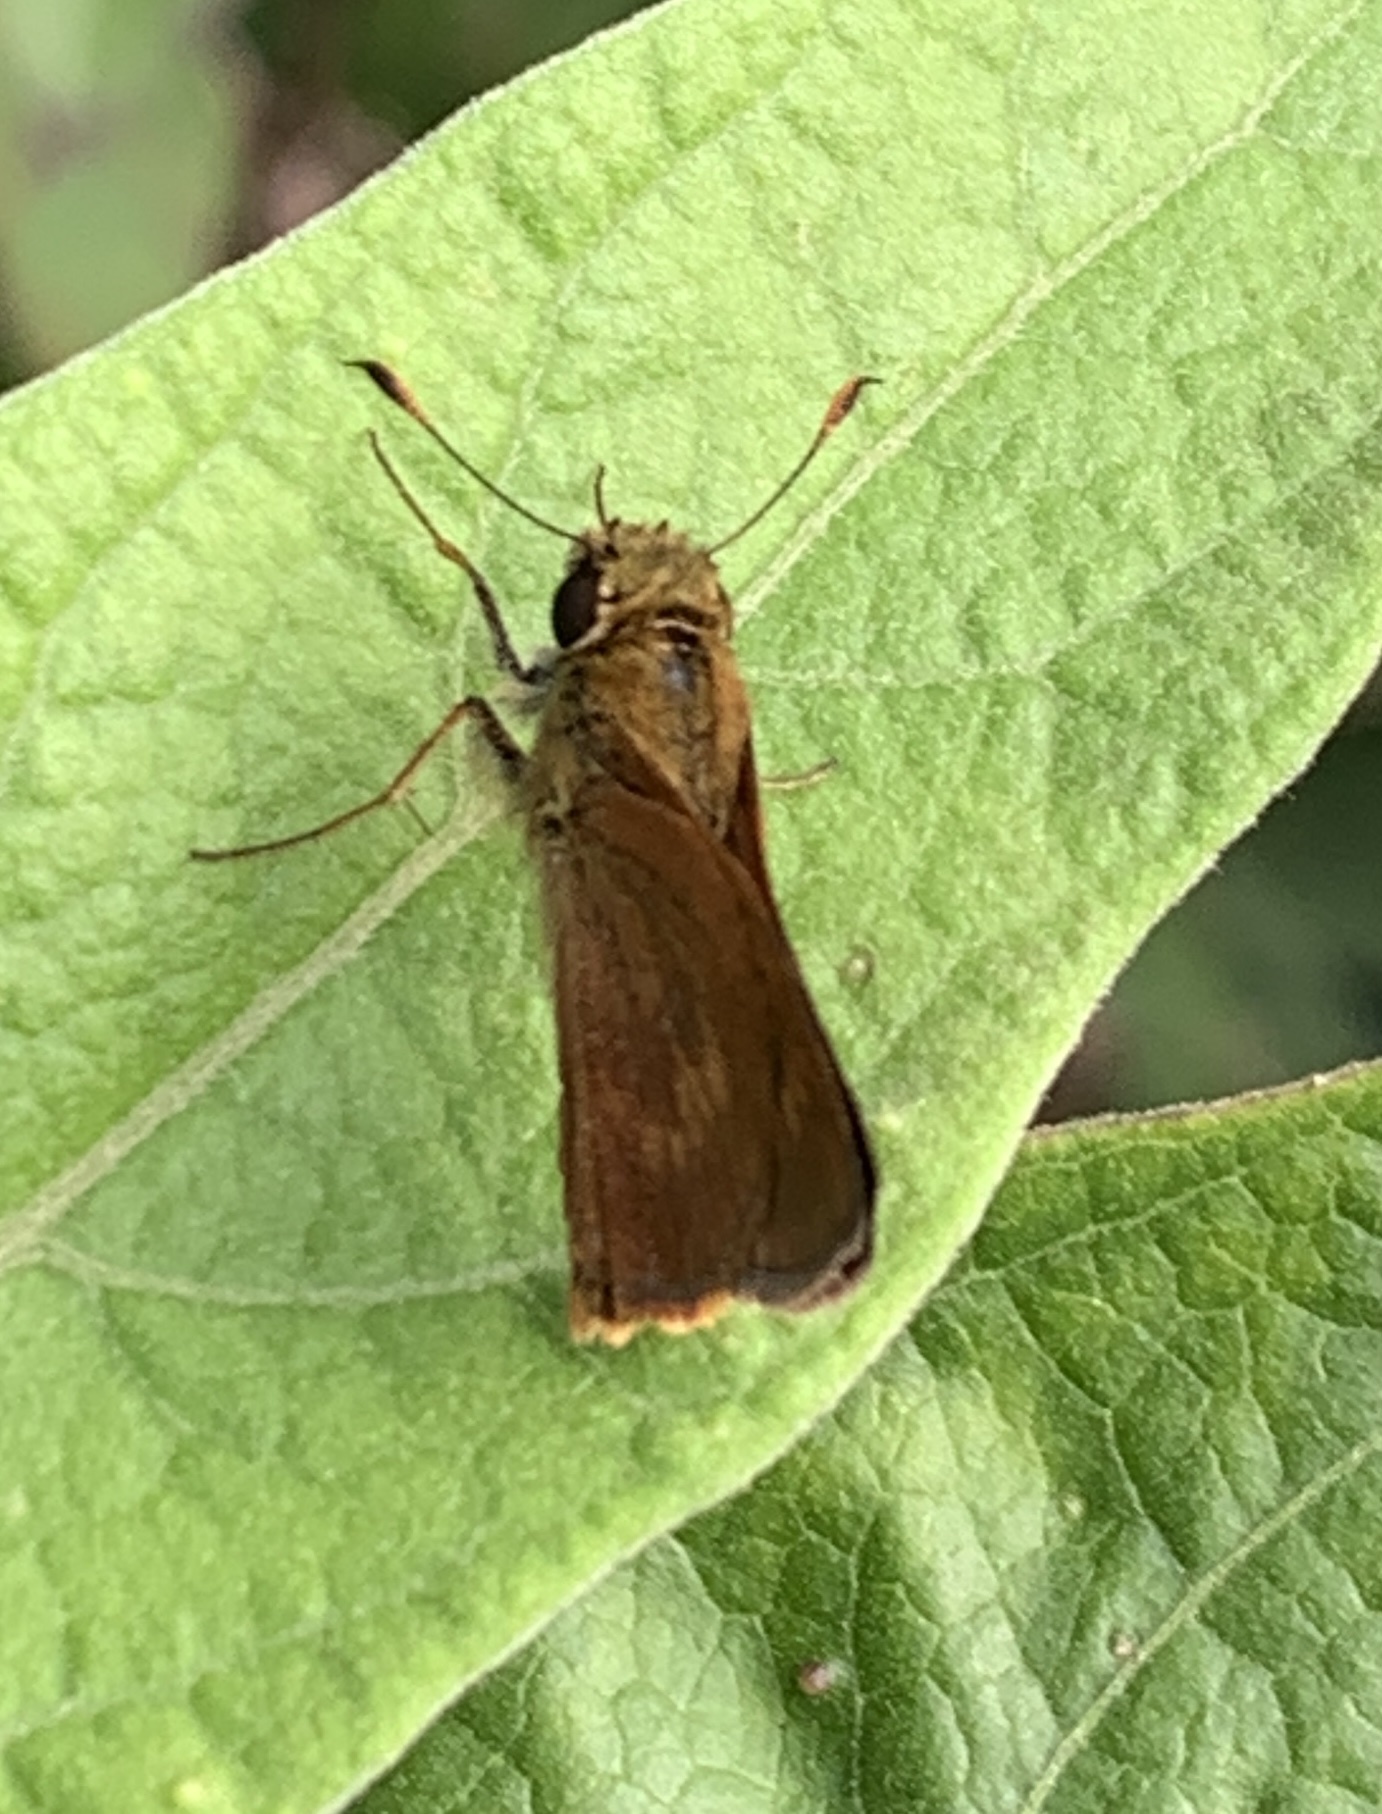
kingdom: Animalia
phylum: Arthropoda
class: Insecta
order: Lepidoptera
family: Hesperiidae
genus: Polites
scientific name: Polites otho
